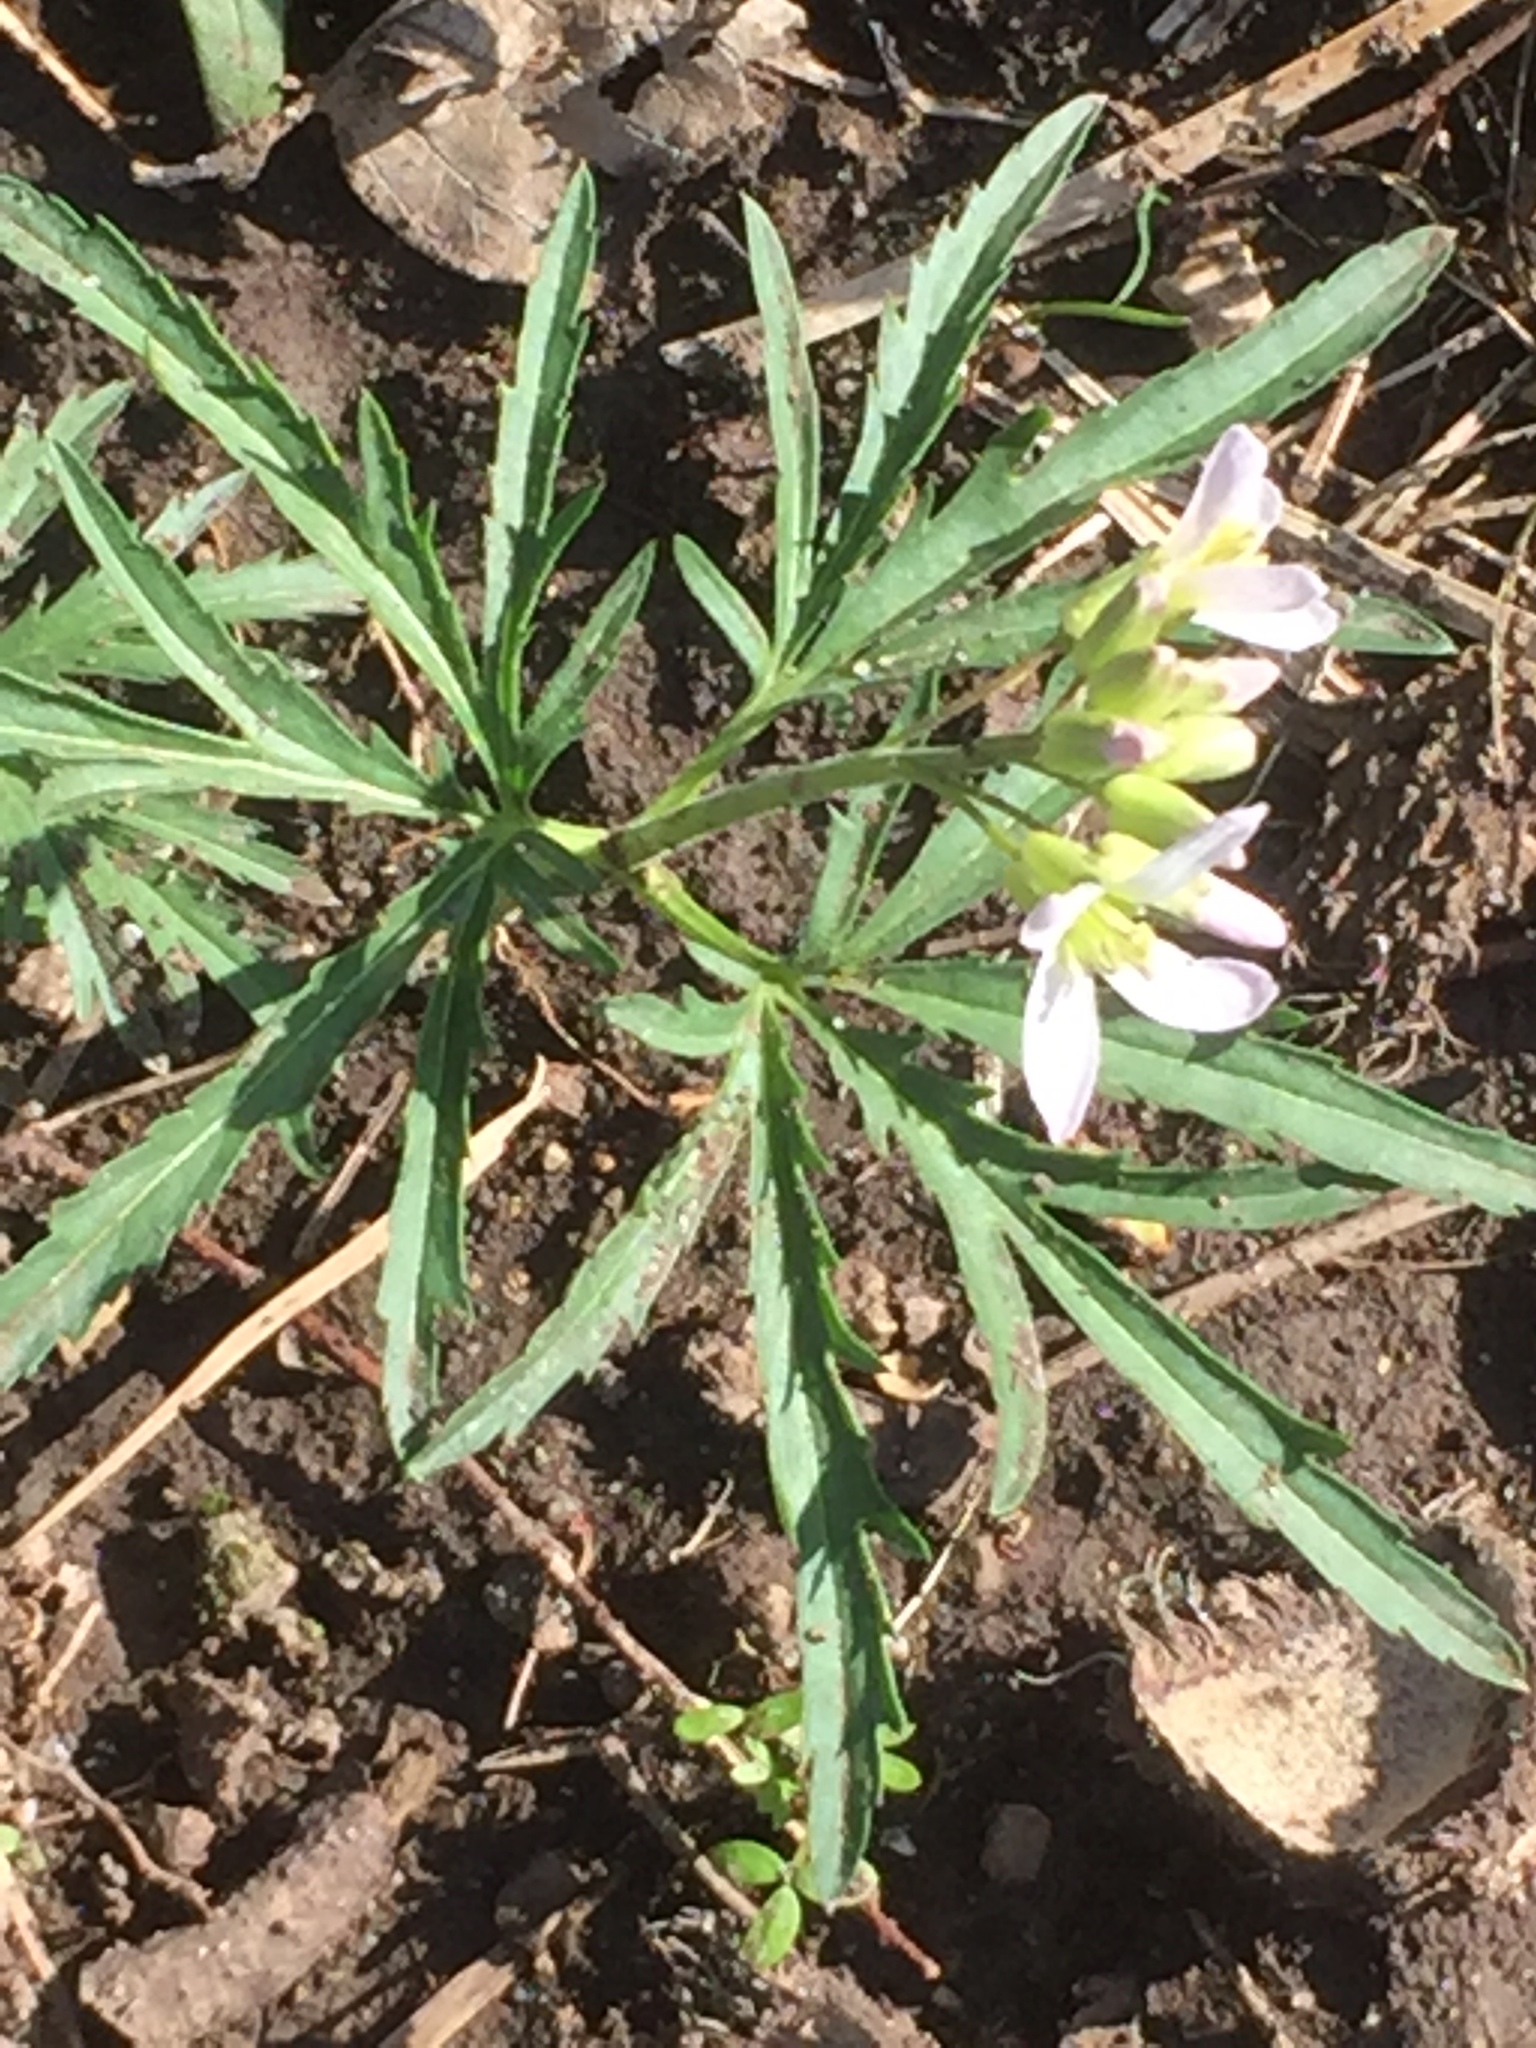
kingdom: Plantae
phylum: Tracheophyta
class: Magnoliopsida
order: Brassicales
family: Brassicaceae
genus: Cardamine
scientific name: Cardamine concatenata
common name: Cut-leaf toothcup
